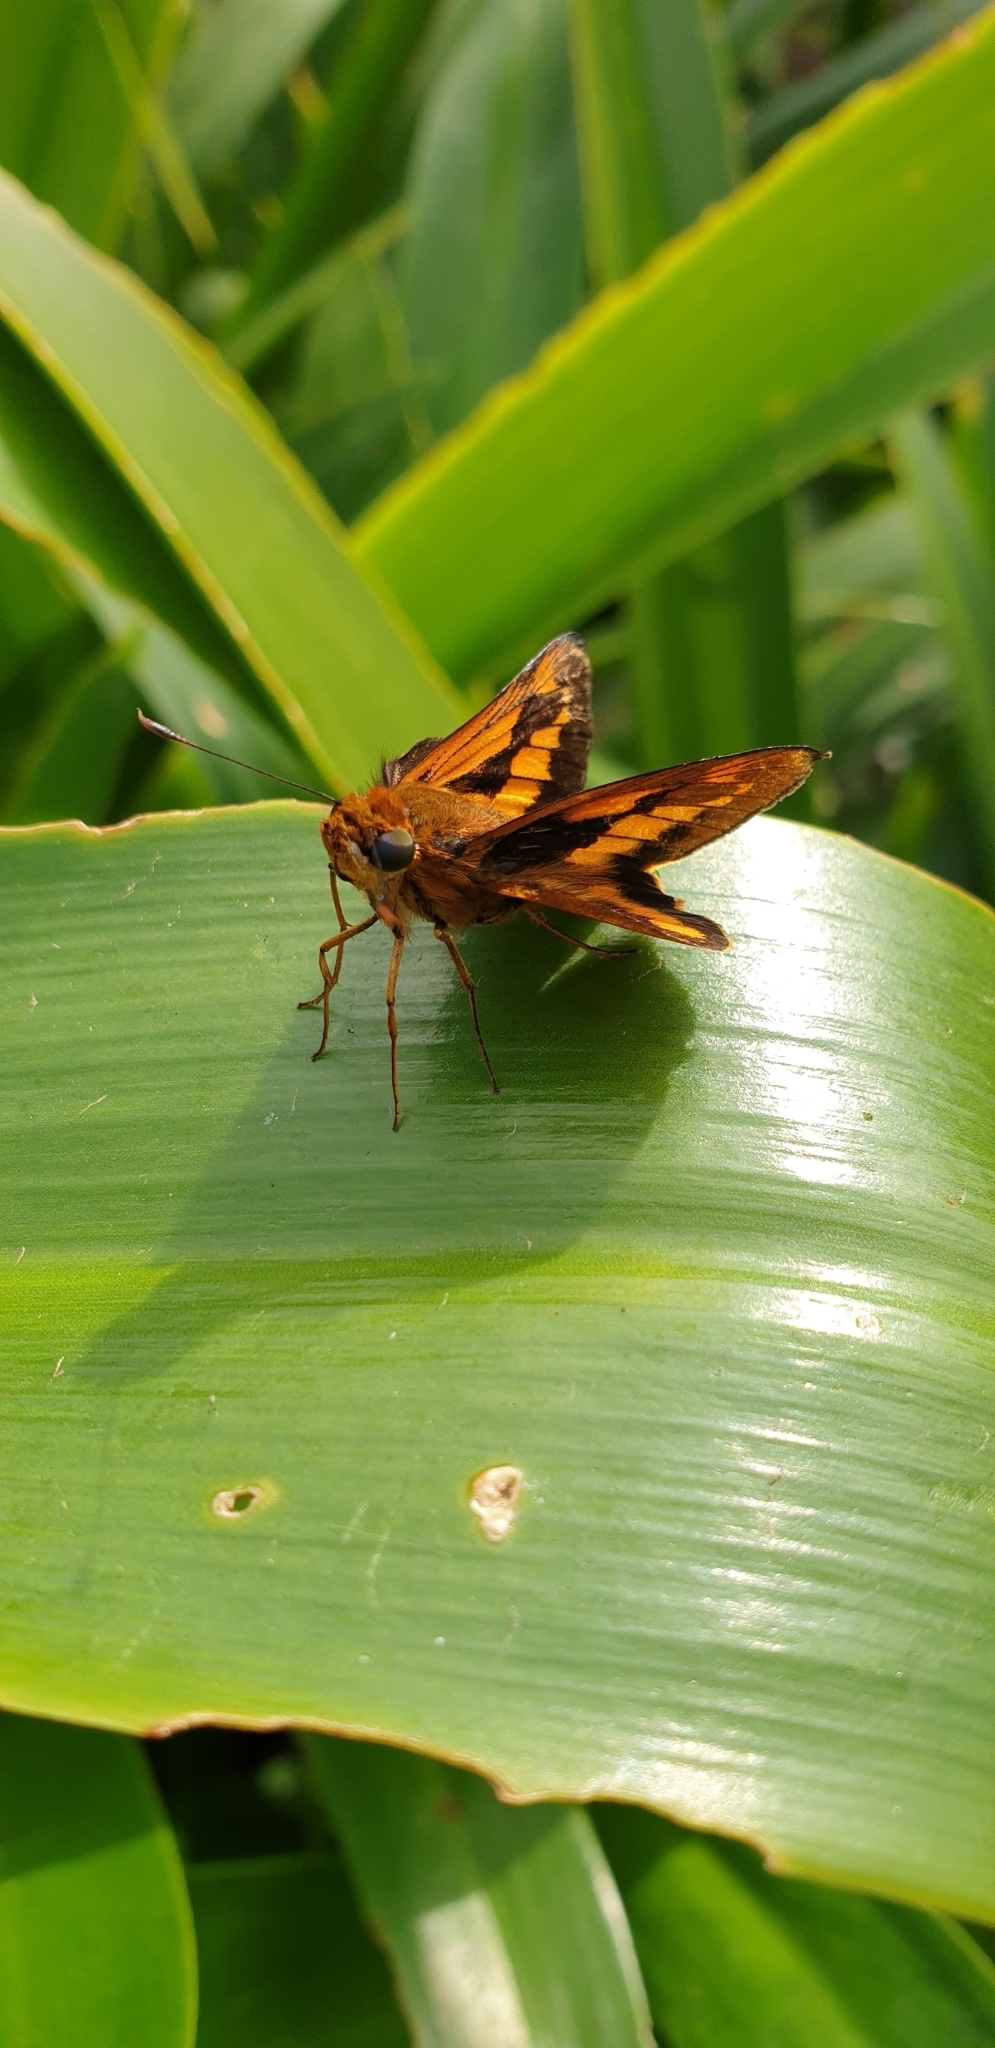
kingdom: Animalia
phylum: Arthropoda
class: Insecta
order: Lepidoptera
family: Hesperiidae
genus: Cephrenes
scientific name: Cephrenes augiades
